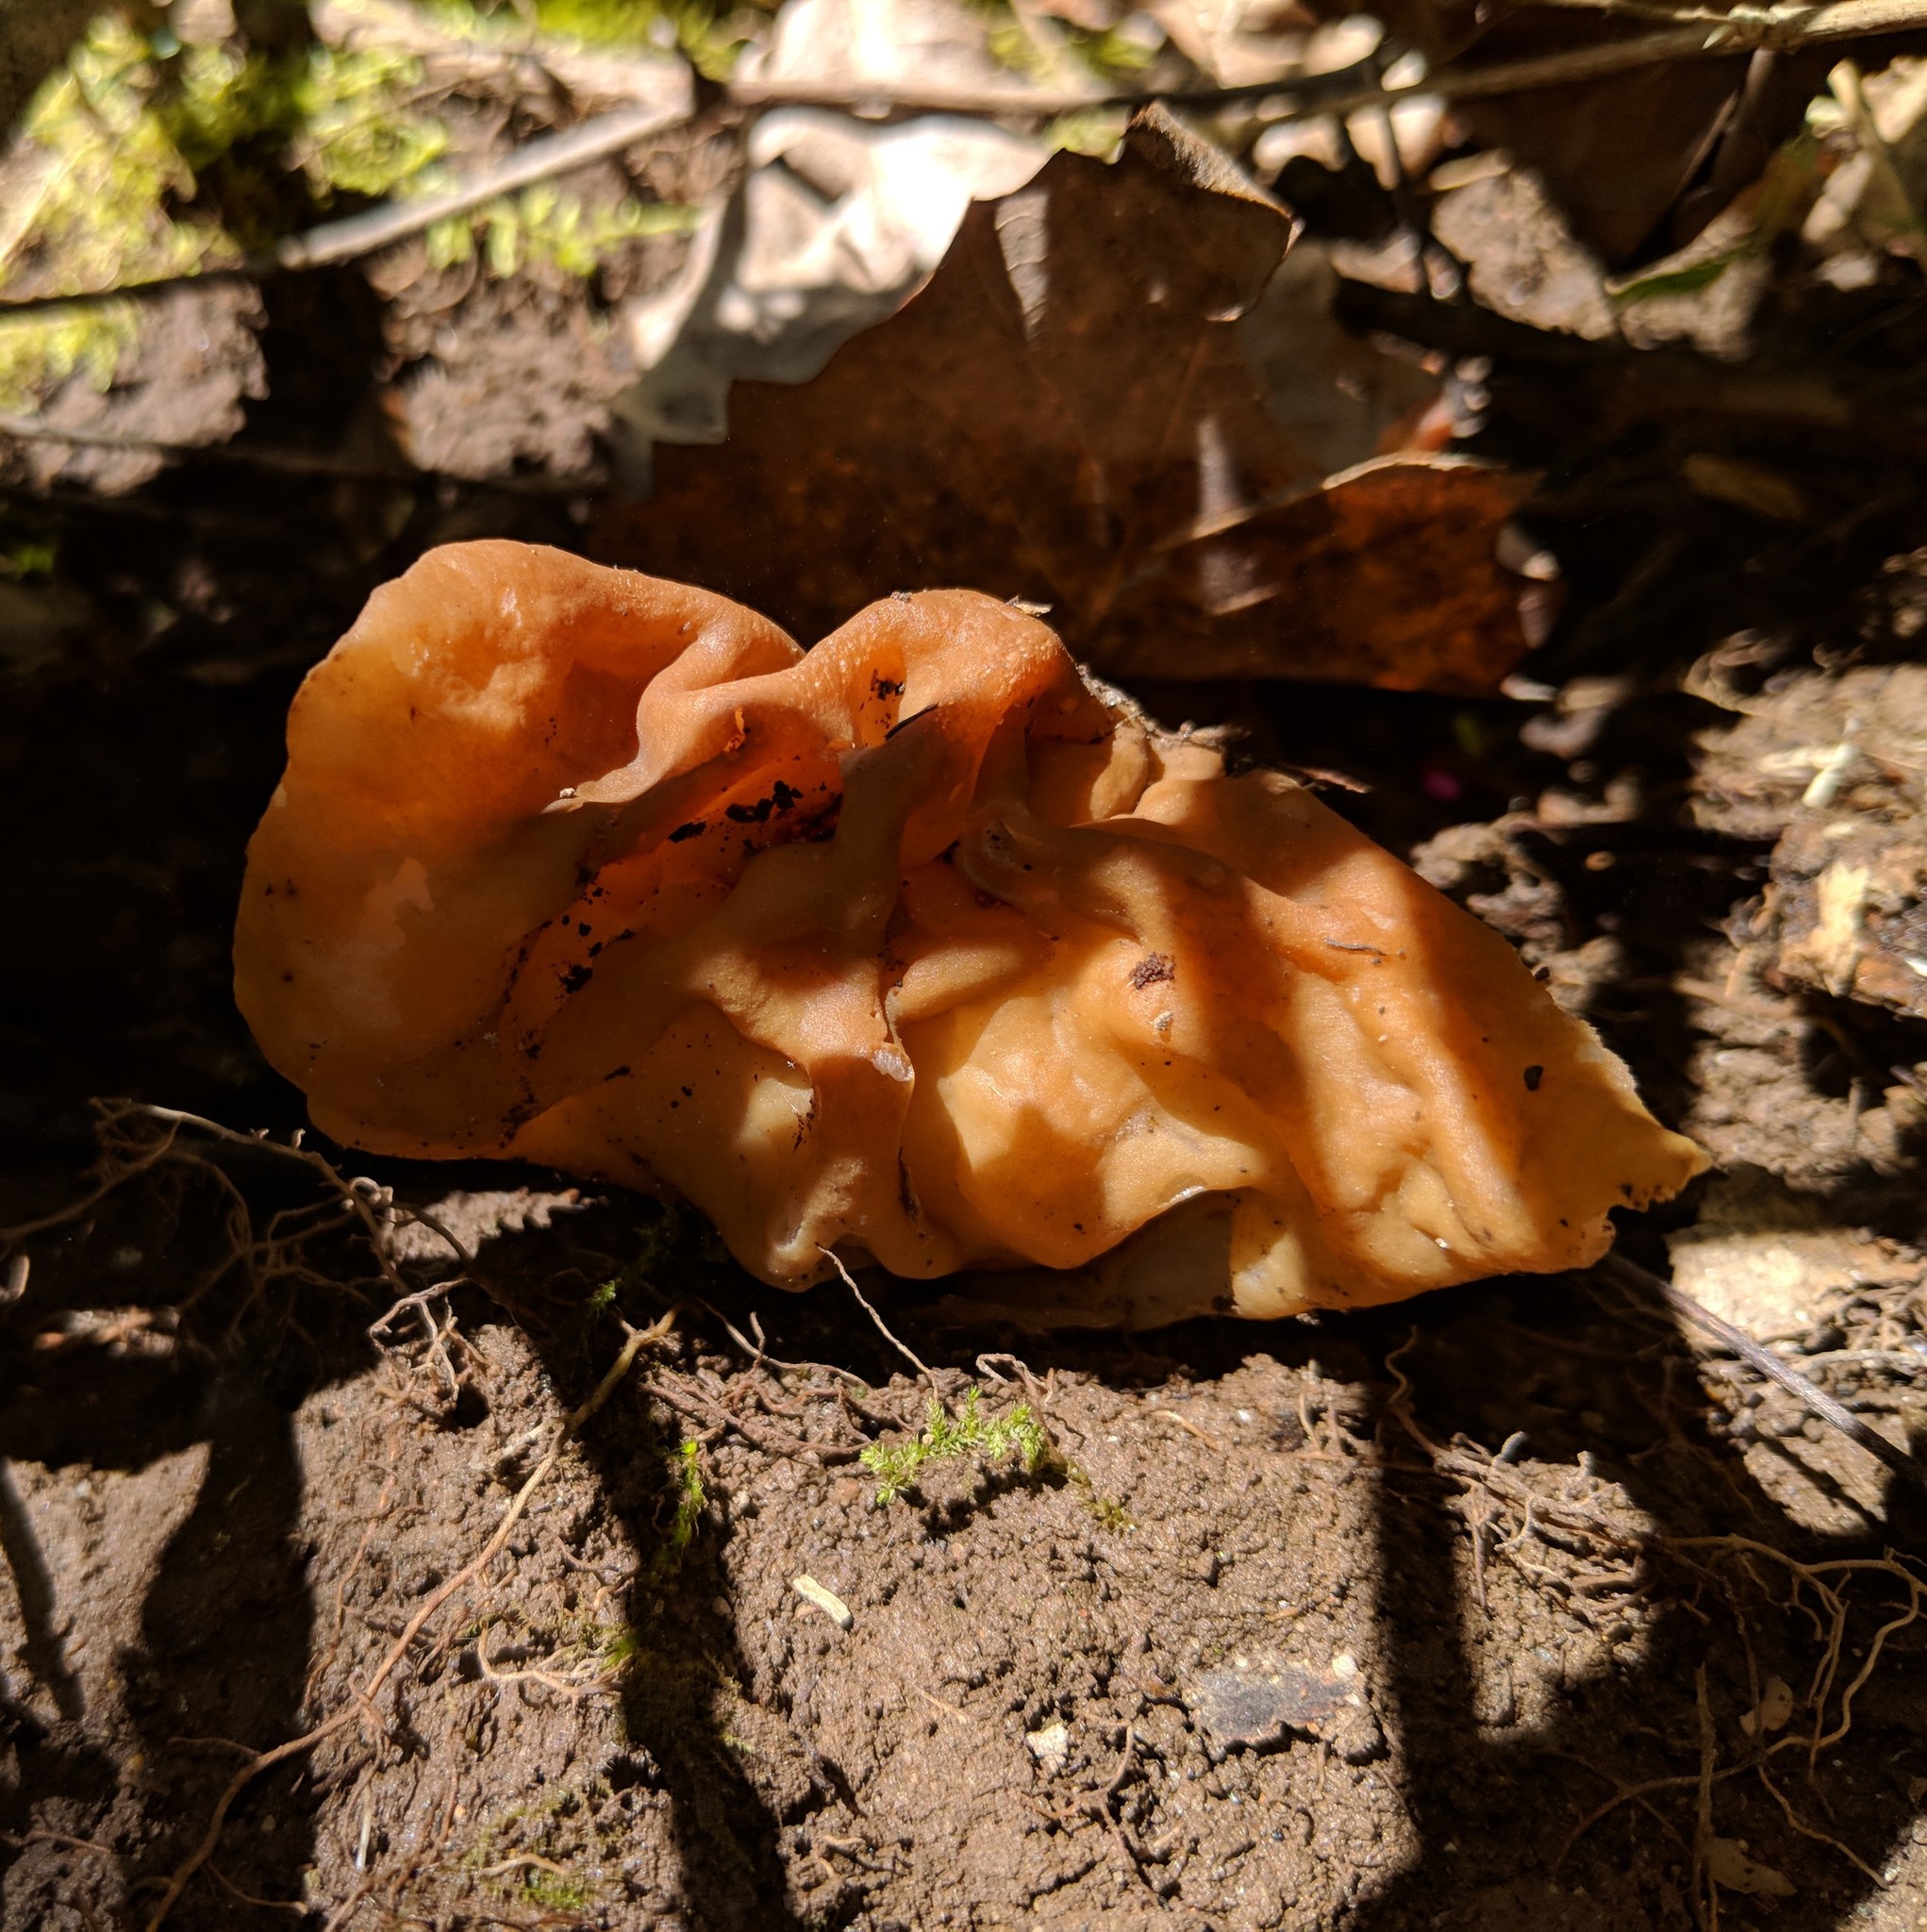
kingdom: Fungi
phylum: Ascomycota
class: Pezizomycetes
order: Pezizales
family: Discinaceae
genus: Discina
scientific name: Discina brunnea
